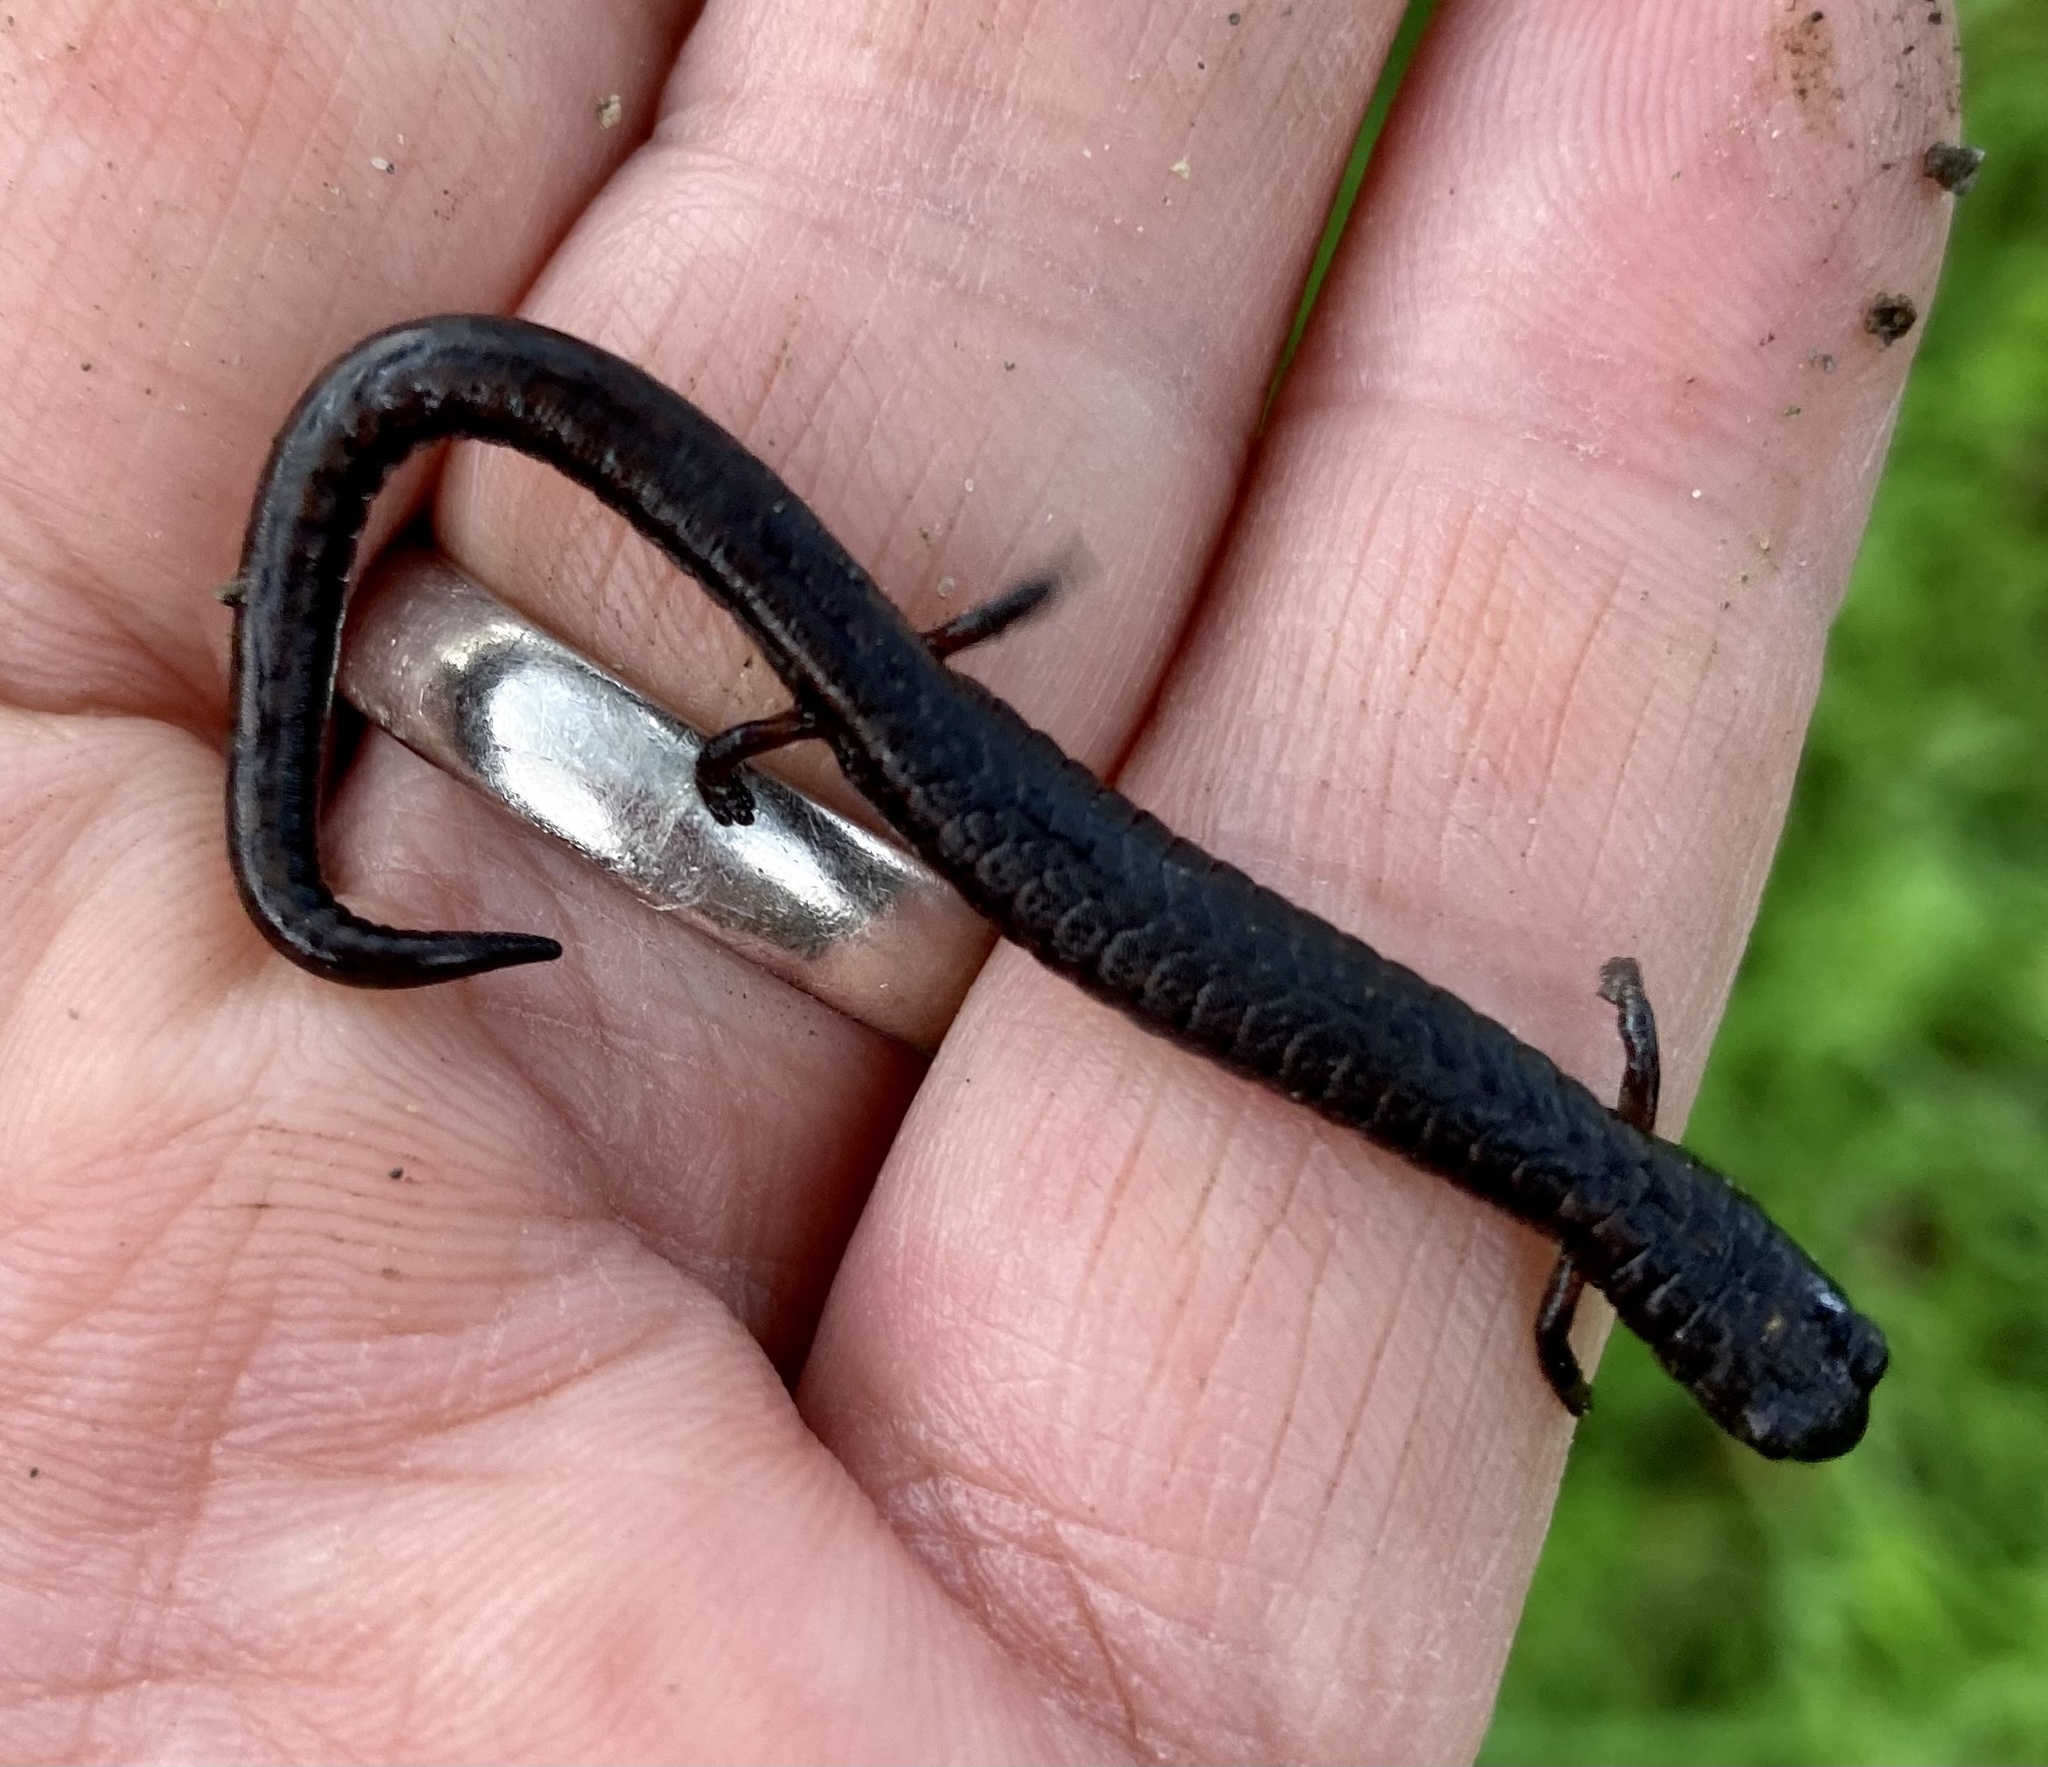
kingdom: Animalia
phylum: Chordata
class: Amphibia
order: Caudata
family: Plethodontidae
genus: Batrachoseps
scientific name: Batrachoseps attenuatus
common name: California slender salamander
